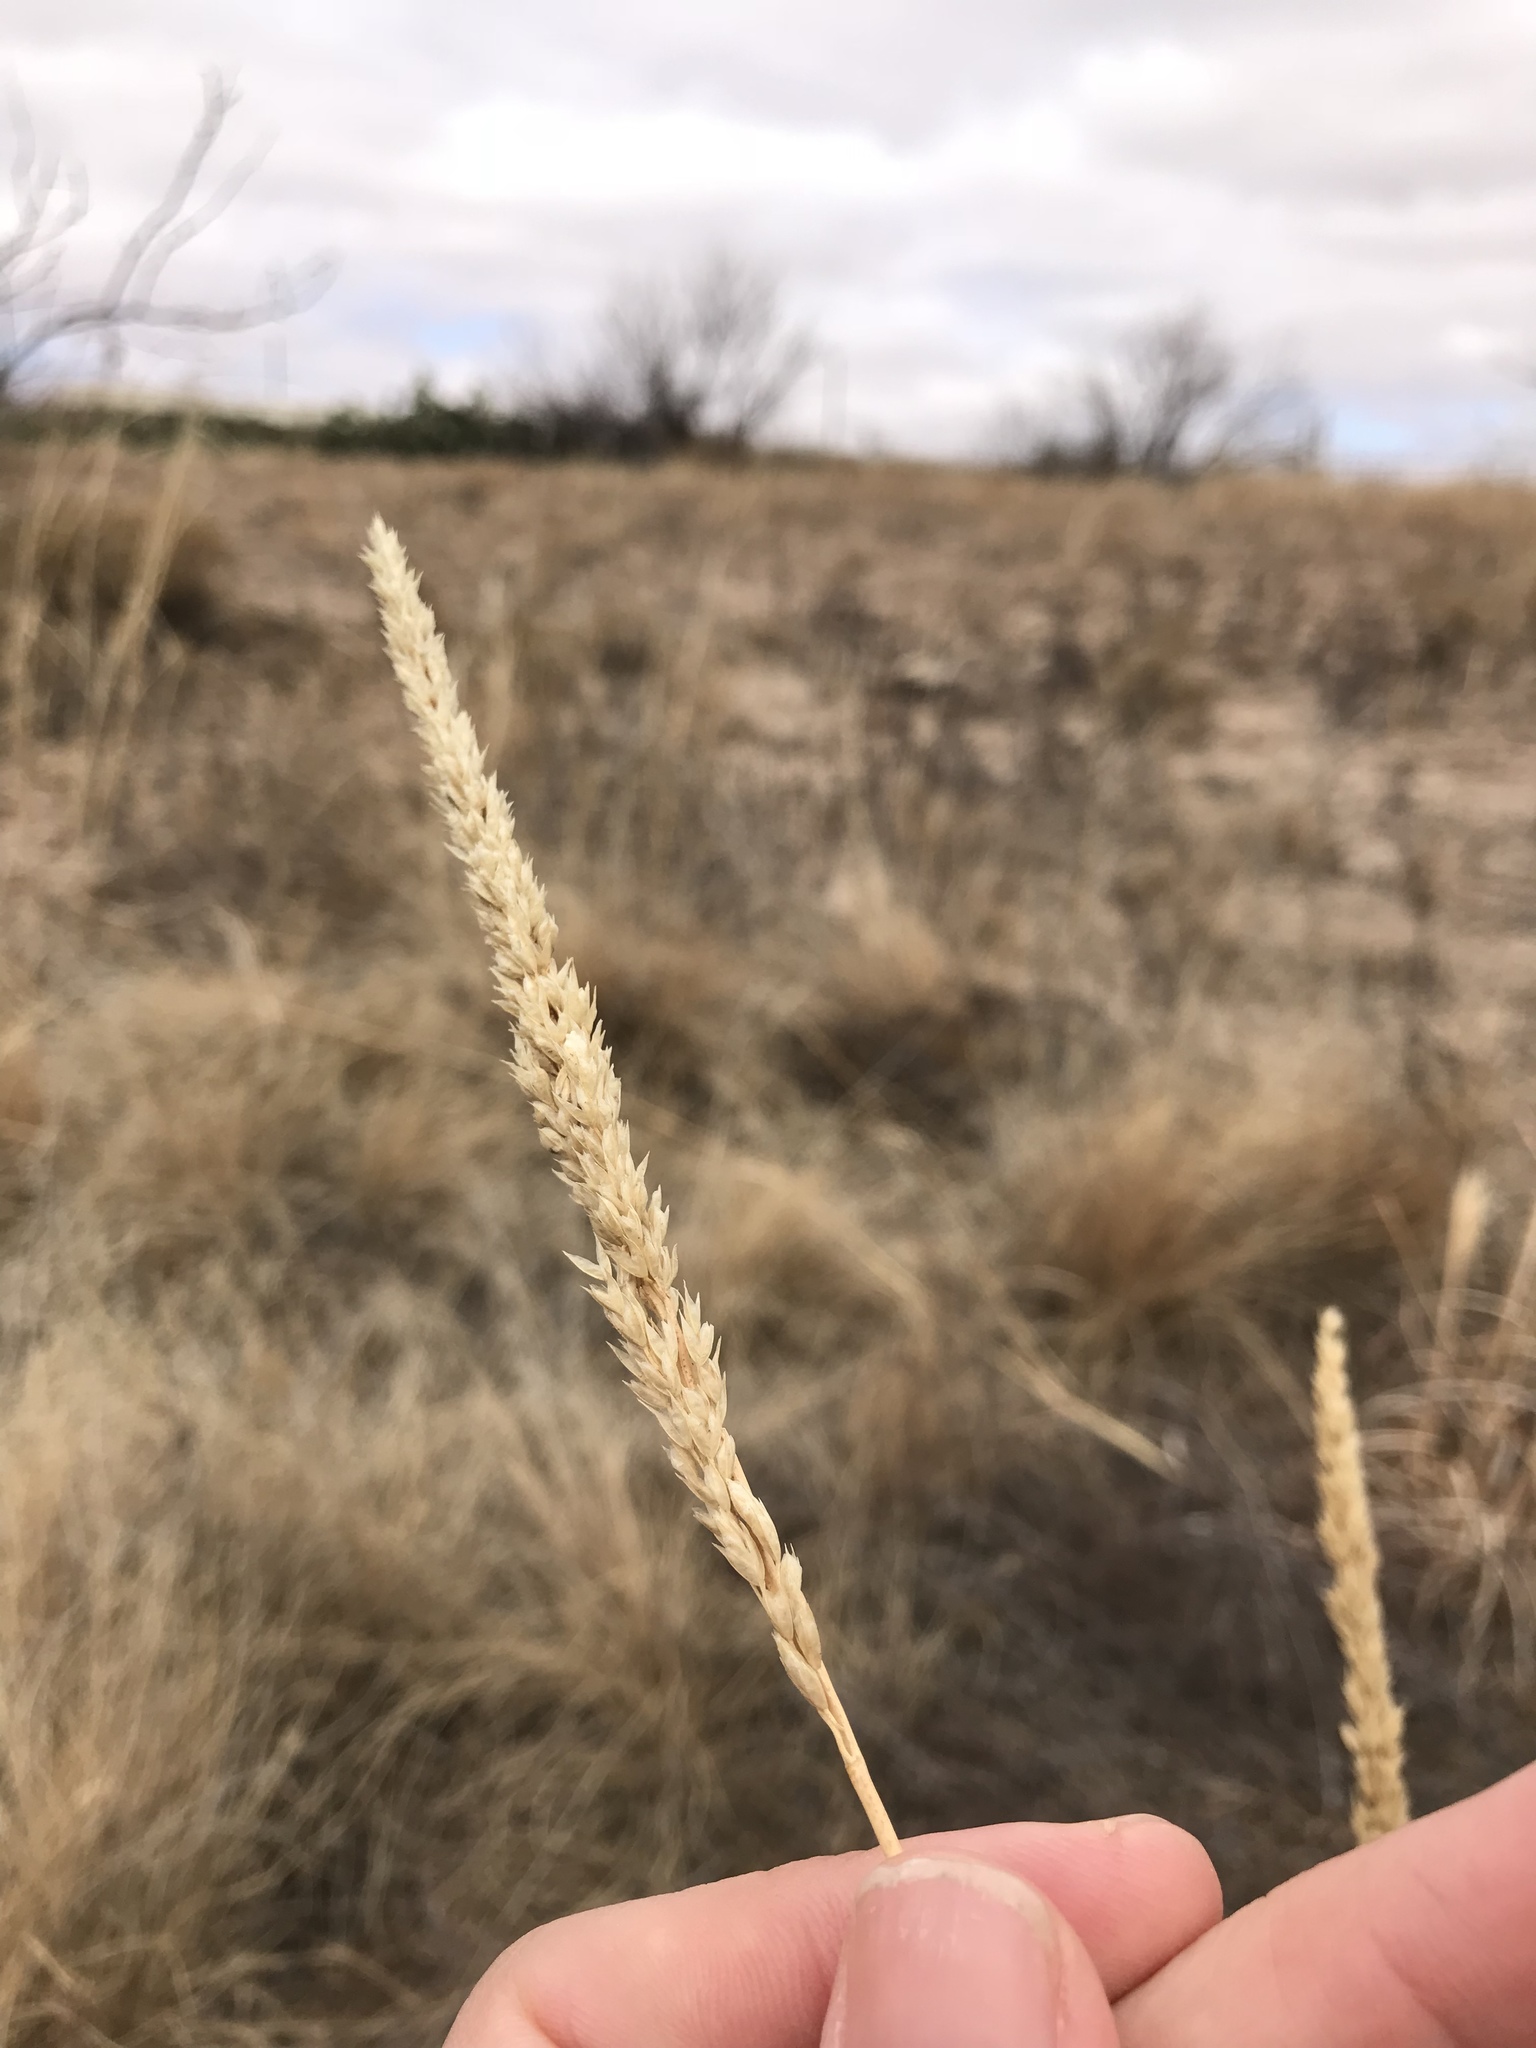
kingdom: Plantae
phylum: Tracheophyta
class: Liliopsida
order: Poales
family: Poaceae
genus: Tridens
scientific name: Tridens albescens
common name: White tridens
